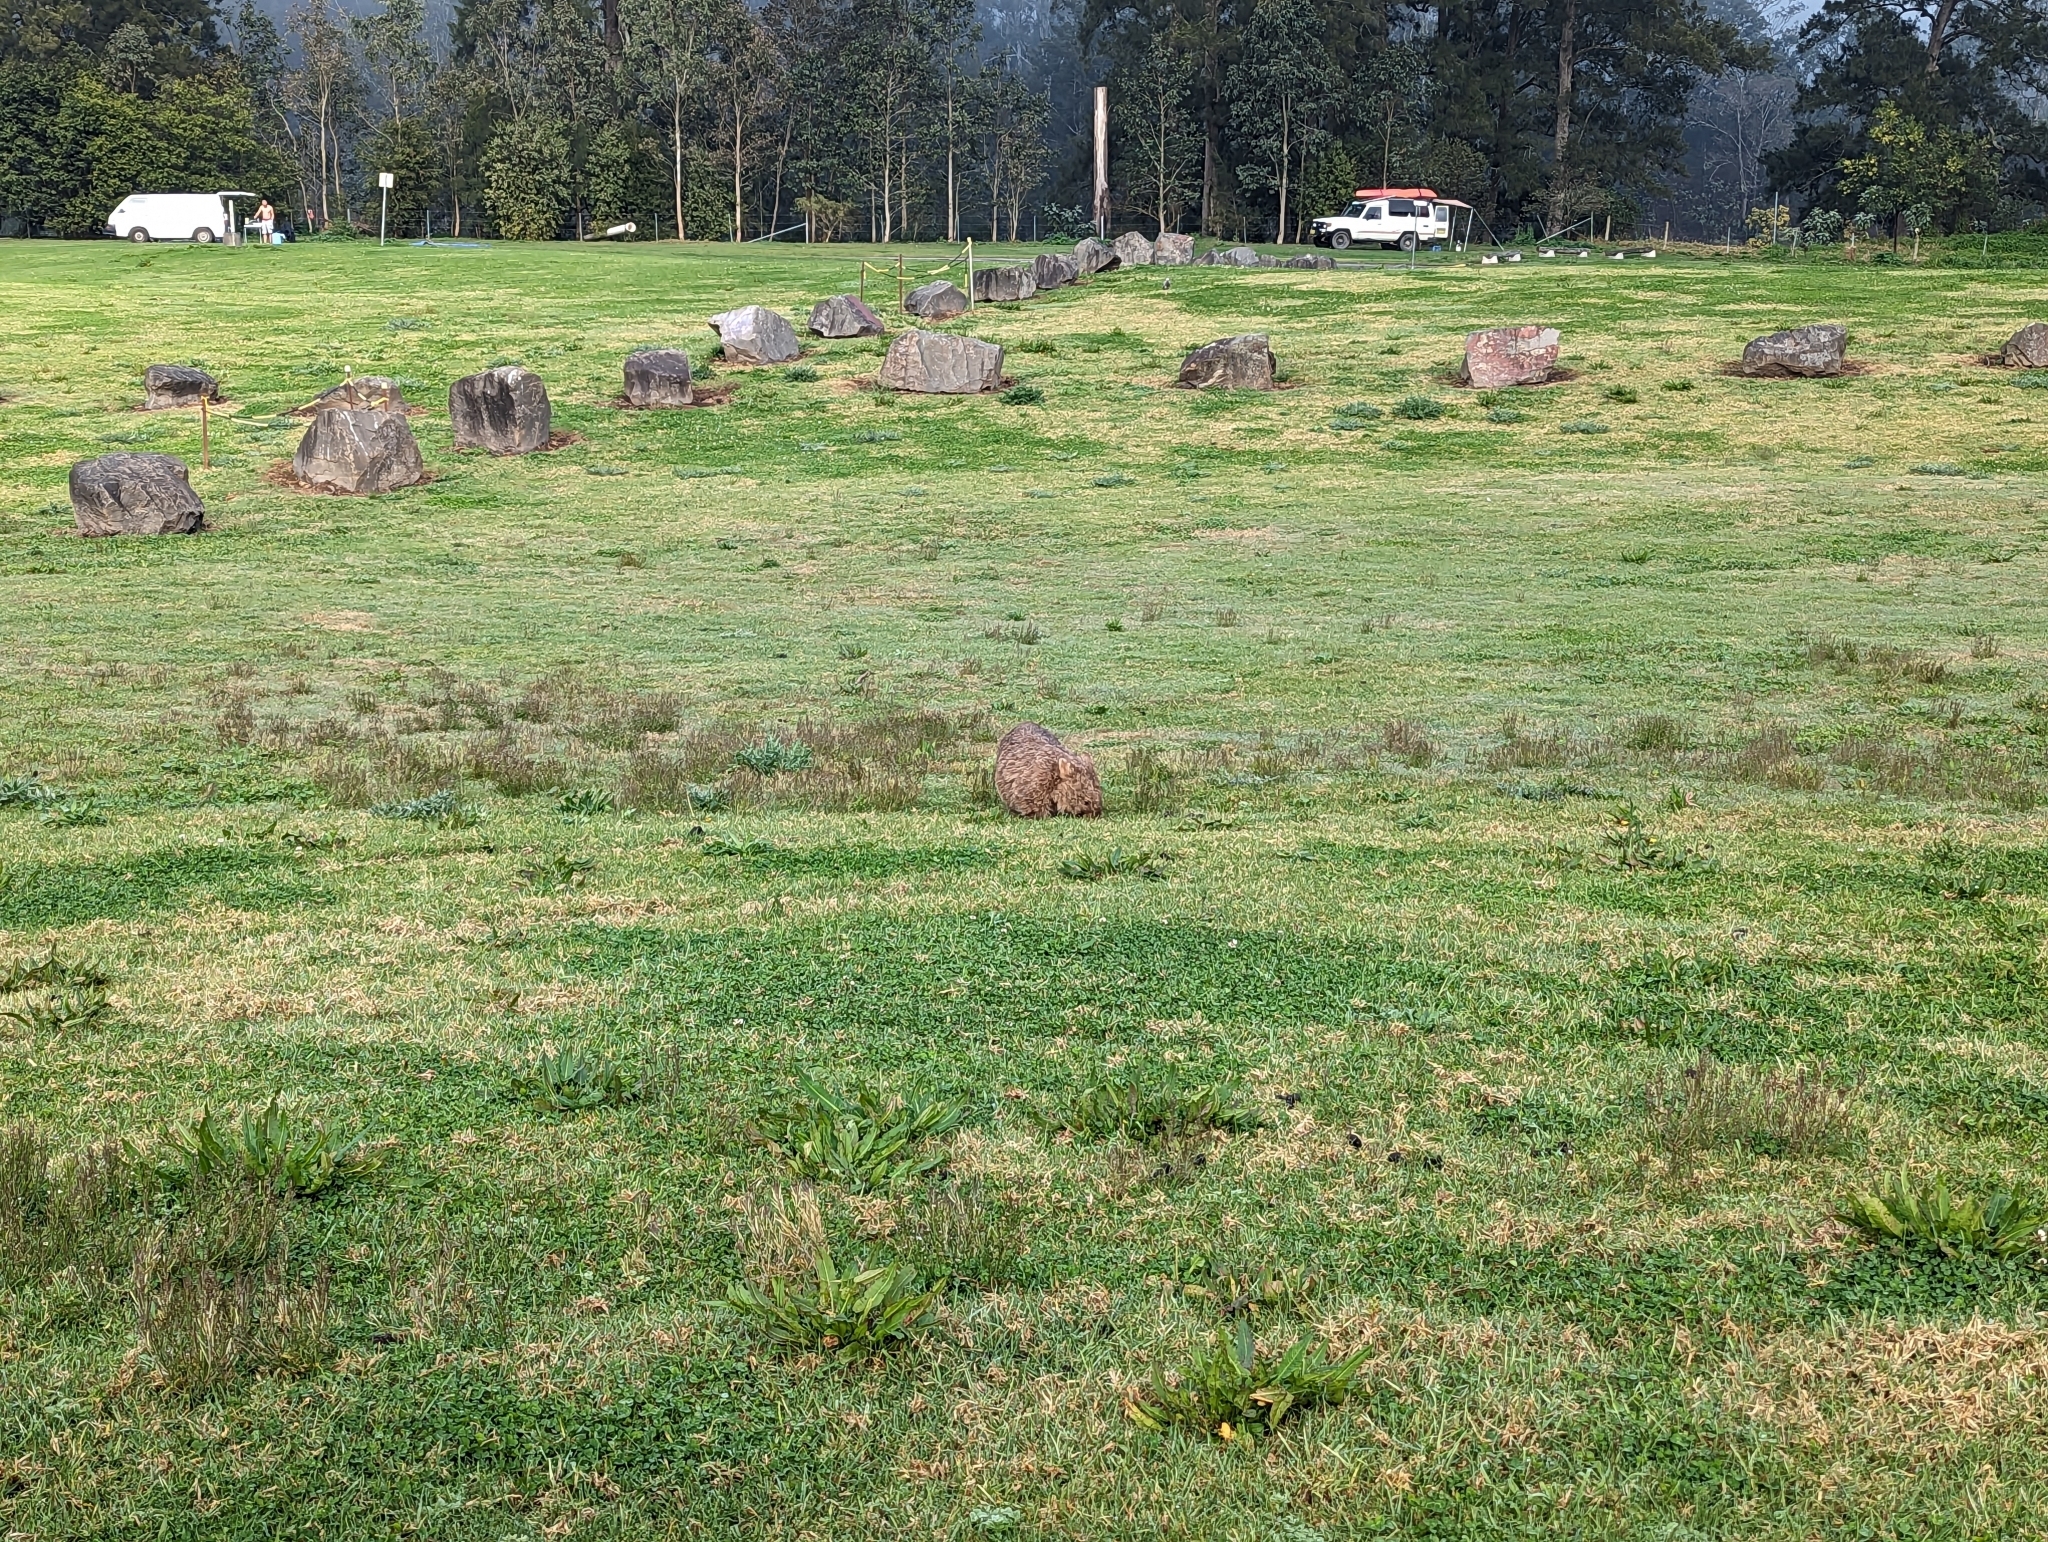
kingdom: Animalia
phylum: Chordata
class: Mammalia
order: Diprotodontia
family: Vombatidae
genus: Vombatus
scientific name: Vombatus ursinus
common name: Common wombat
